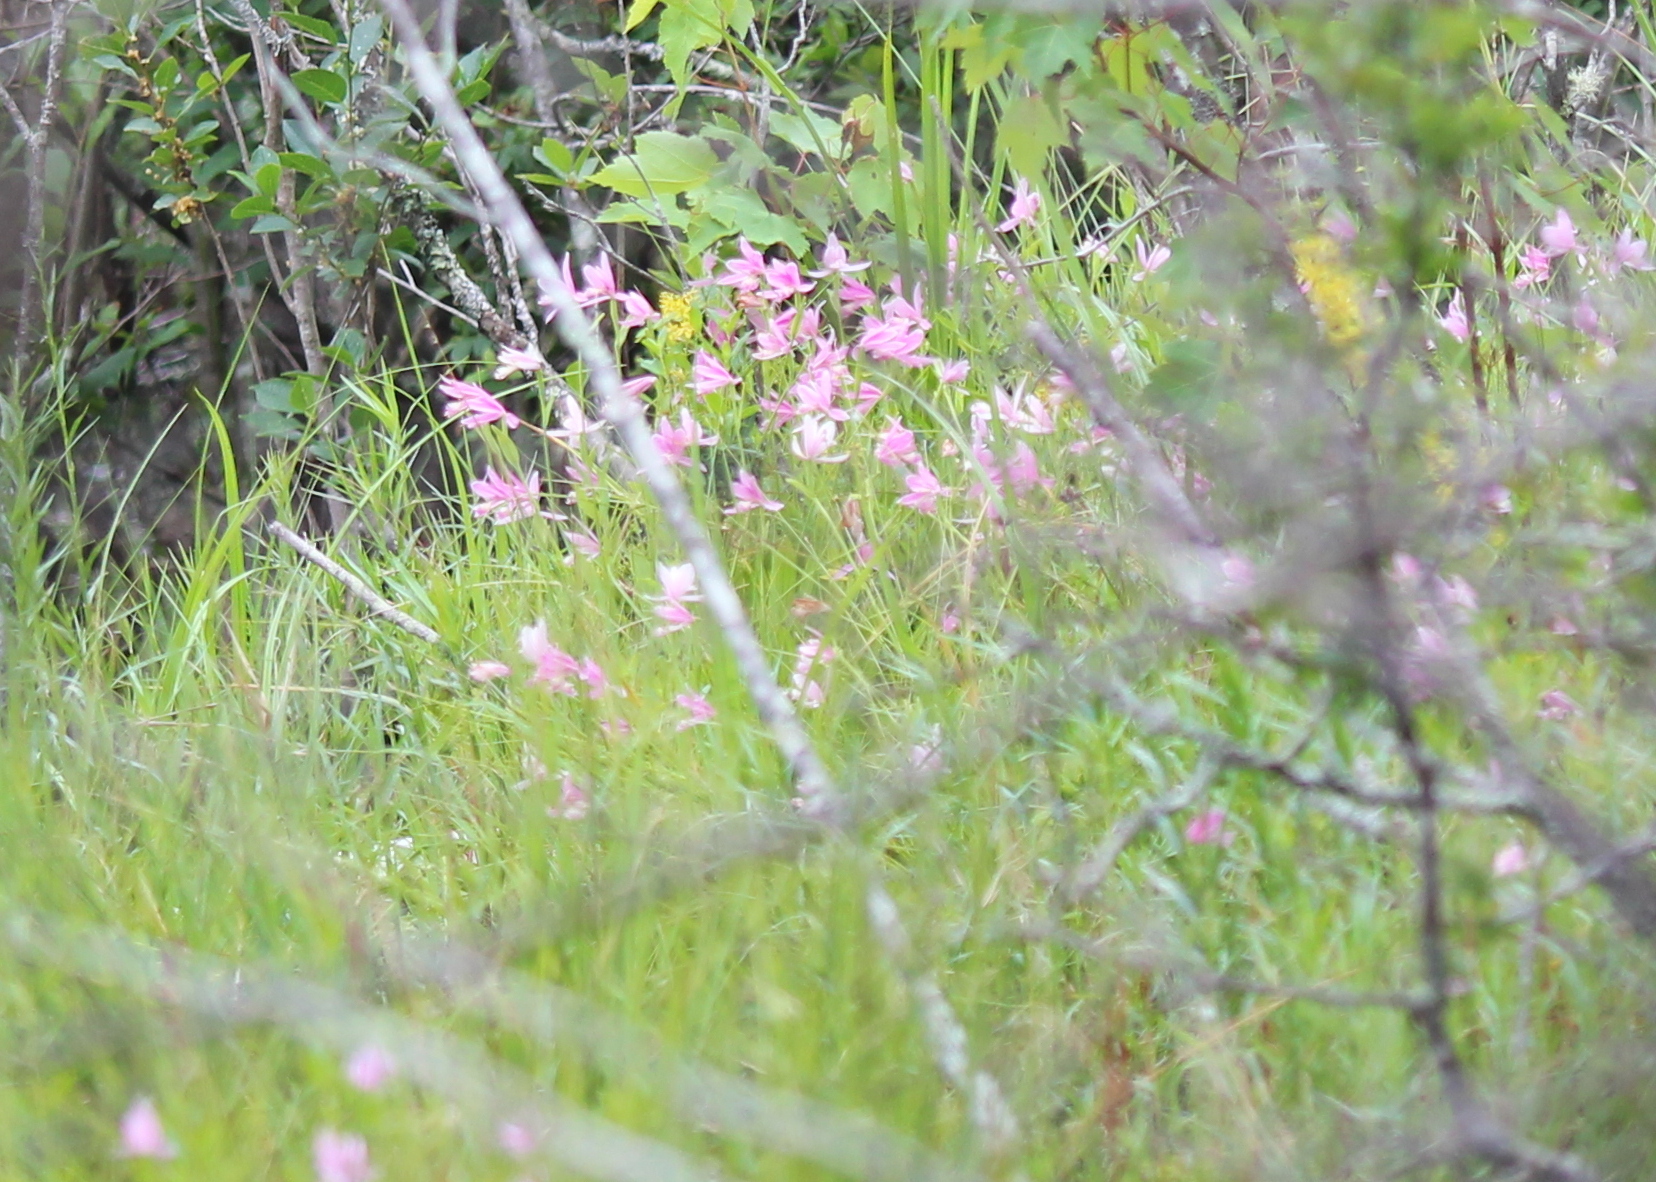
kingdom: Plantae
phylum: Tracheophyta
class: Liliopsida
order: Asparagales
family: Orchidaceae
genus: Pogonia
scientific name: Pogonia ophioglossoides
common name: Rose pogonia
